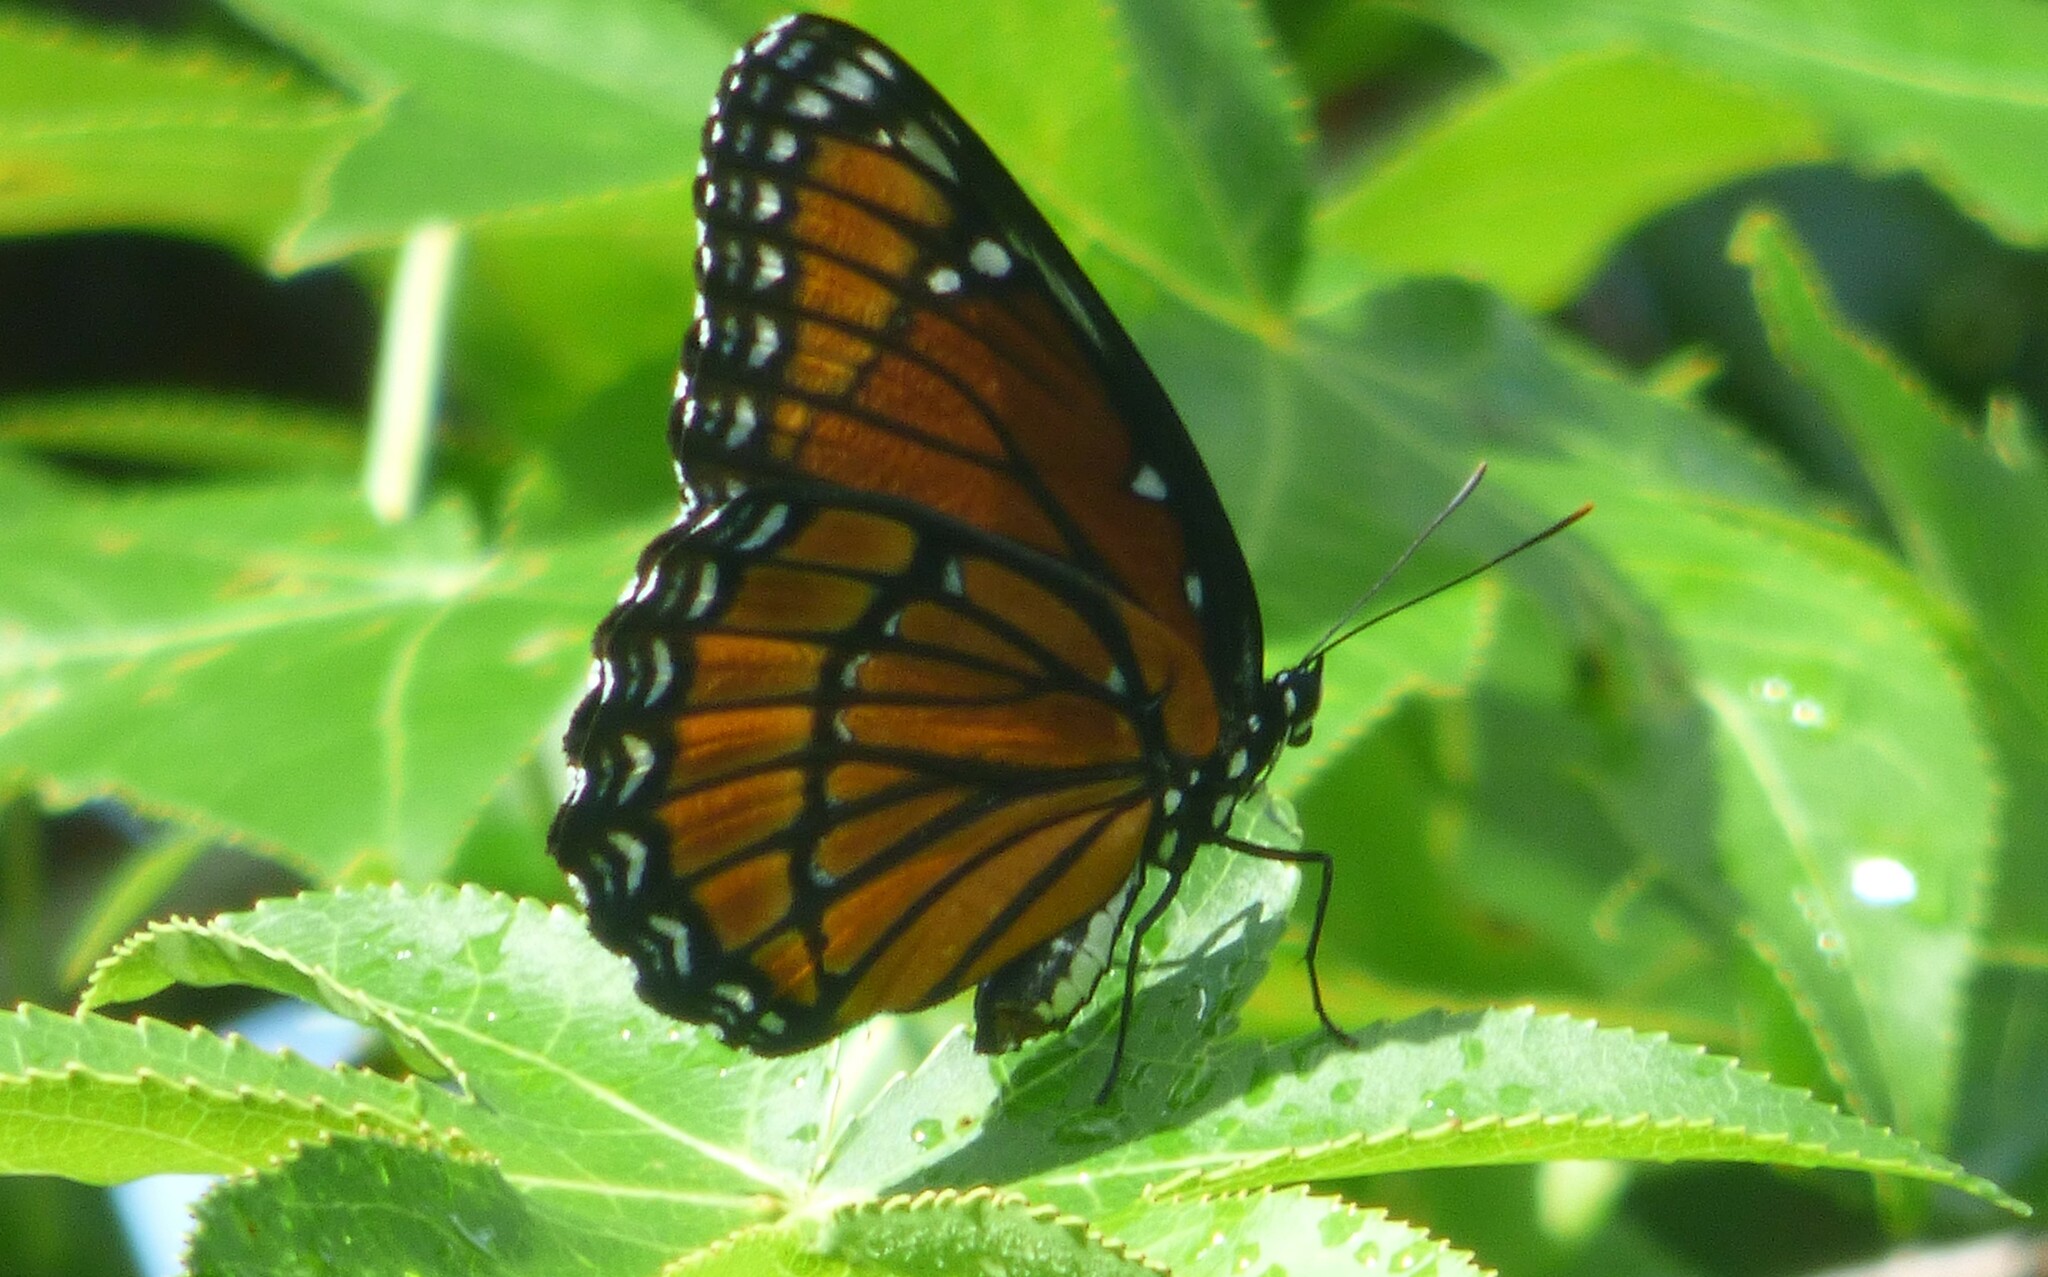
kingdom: Animalia
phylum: Arthropoda
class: Insecta
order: Lepidoptera
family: Nymphalidae
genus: Limenitis
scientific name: Limenitis archippus
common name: Viceroy
